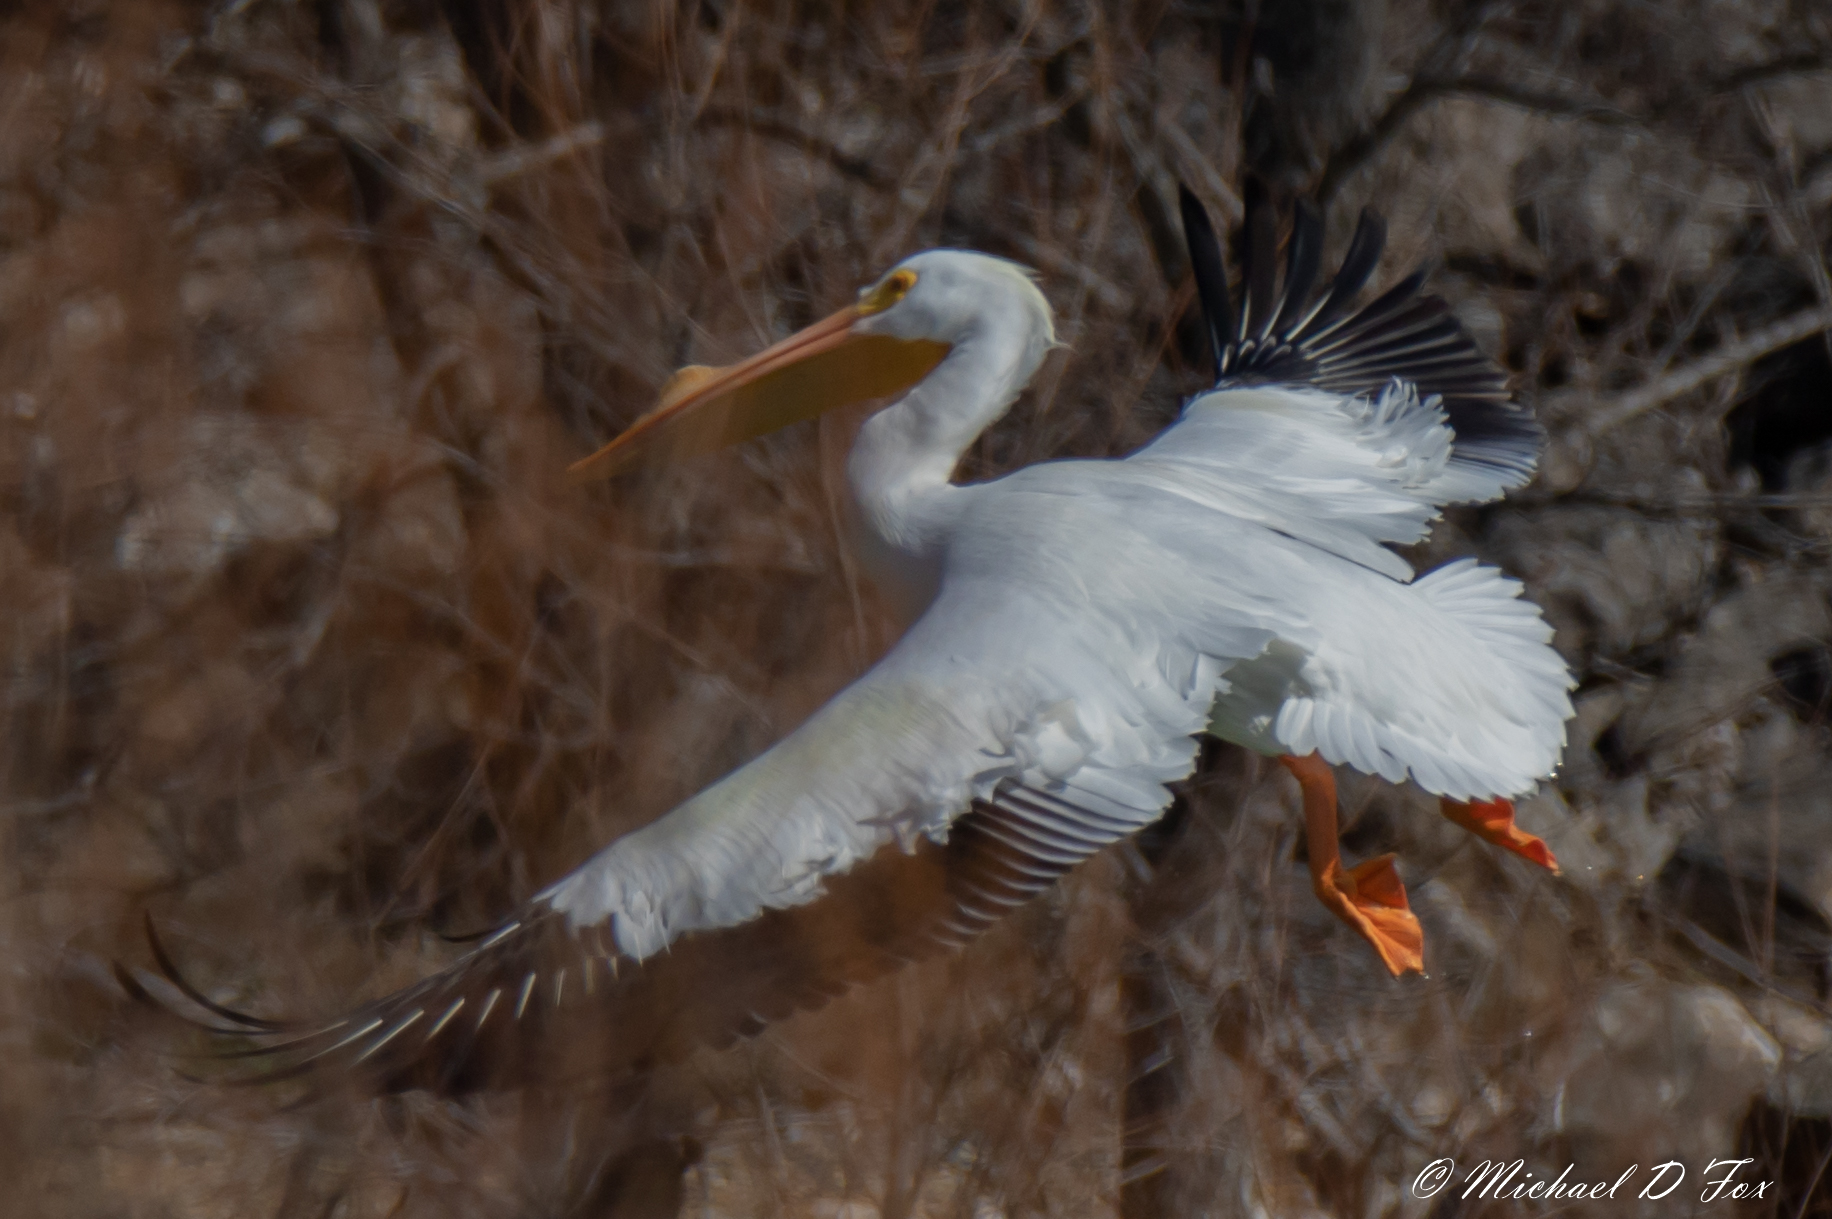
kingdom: Animalia
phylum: Chordata
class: Aves
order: Pelecaniformes
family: Pelecanidae
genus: Pelecanus
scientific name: Pelecanus erythrorhynchos
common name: American white pelican
